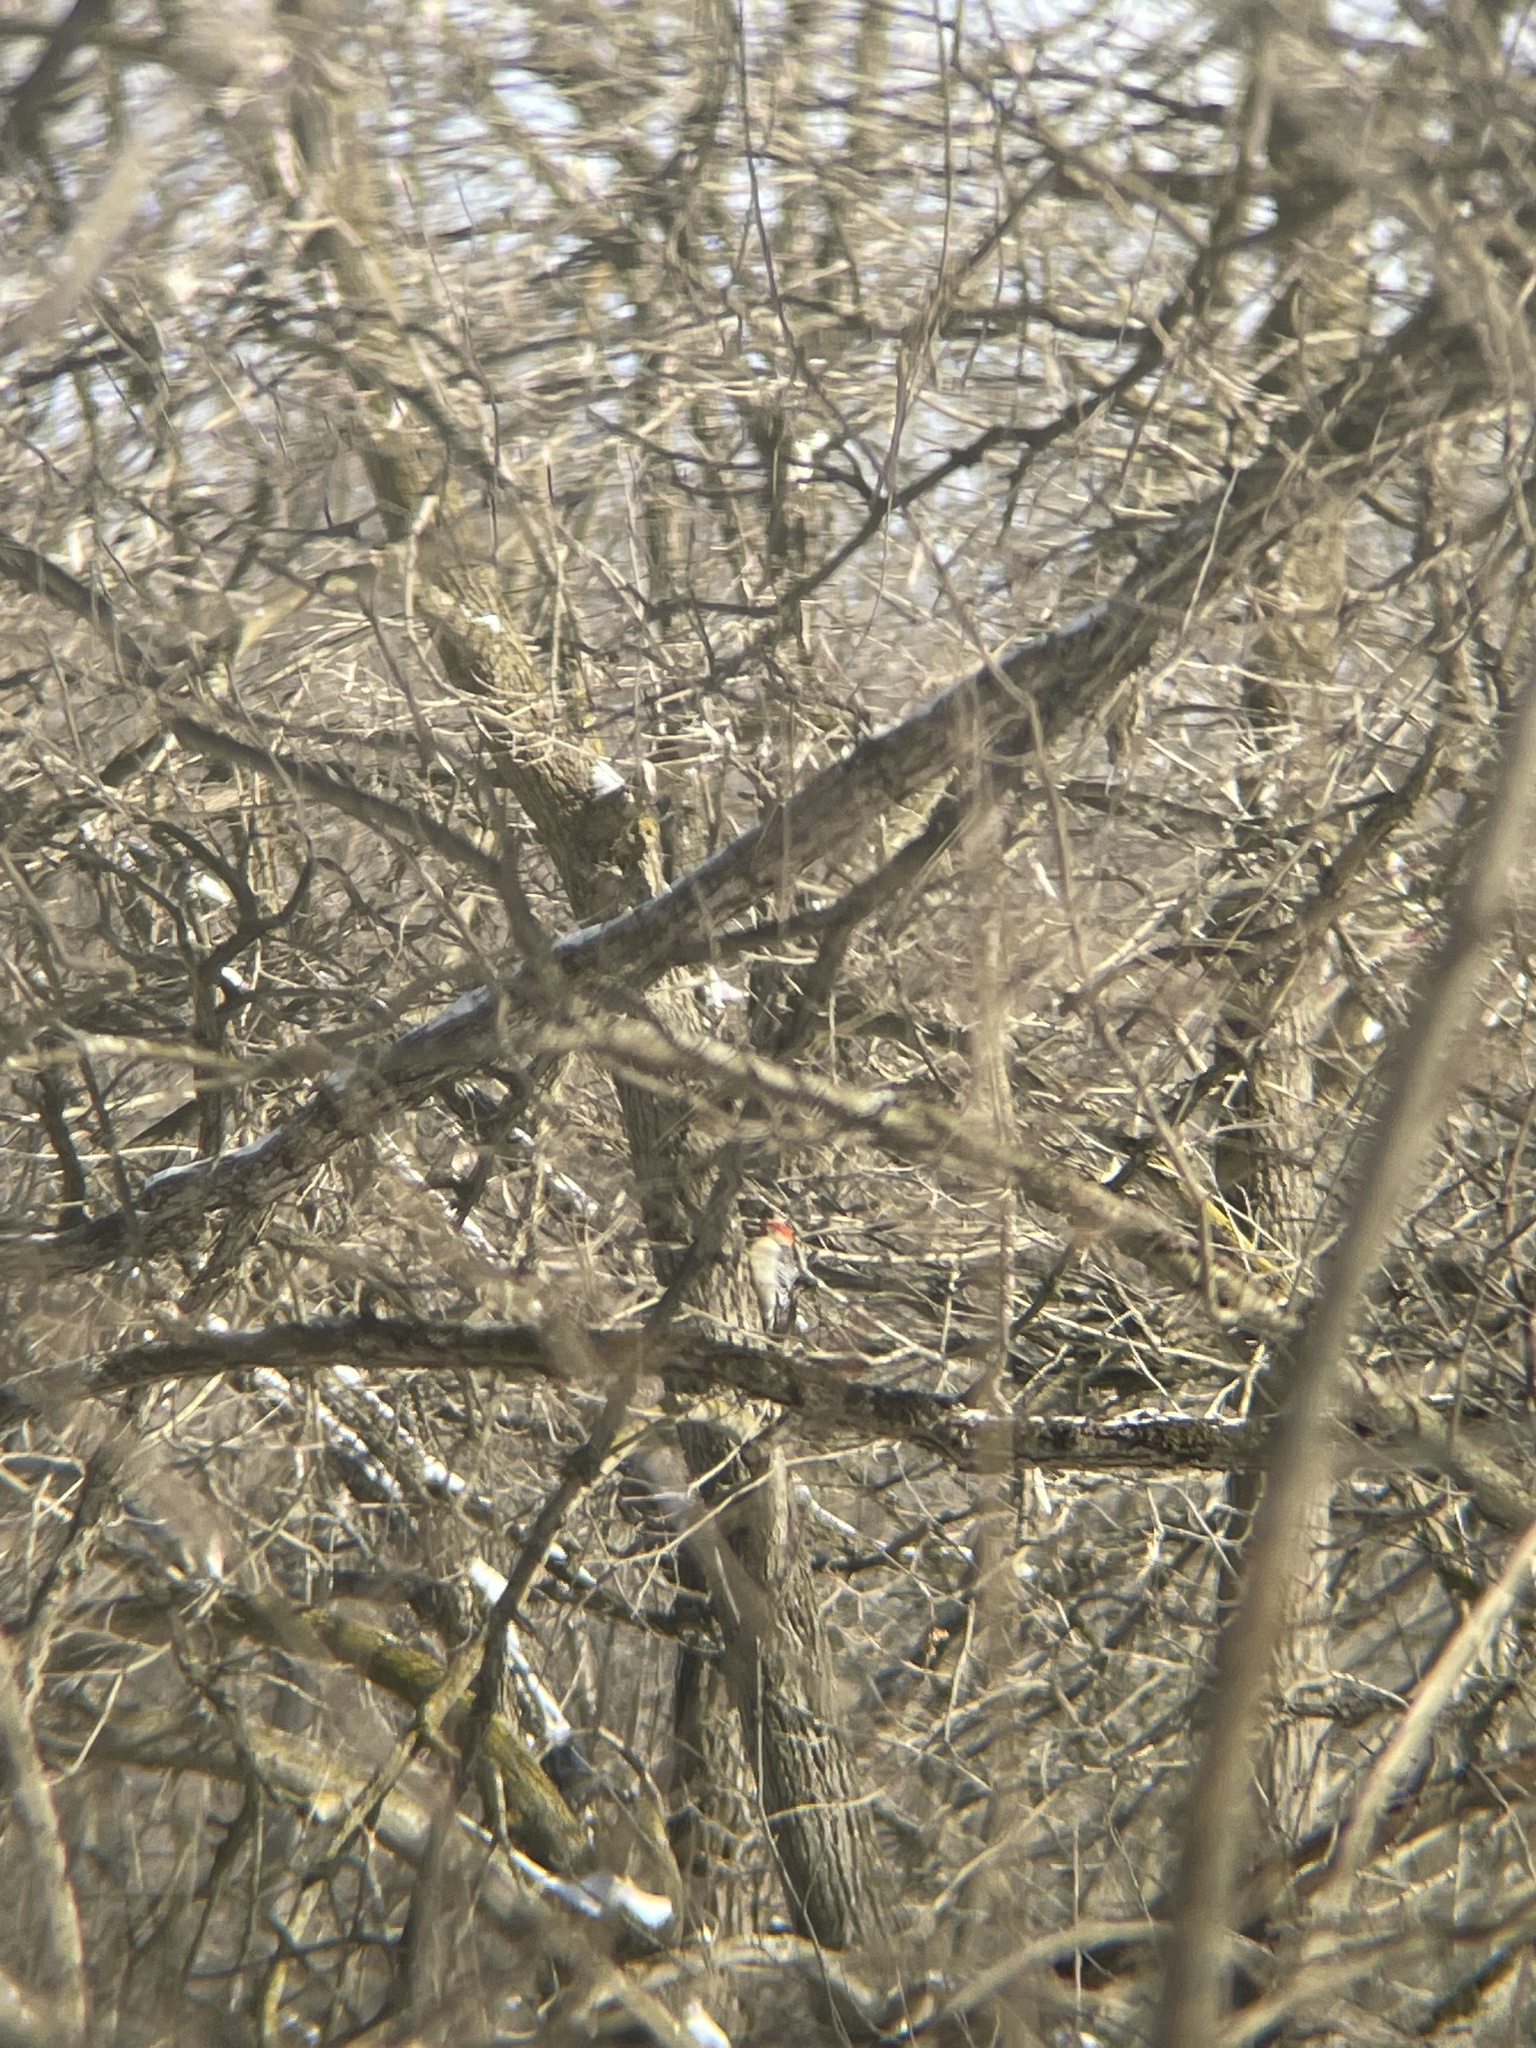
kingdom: Animalia
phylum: Chordata
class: Aves
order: Piciformes
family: Picidae
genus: Melanerpes
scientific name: Melanerpes carolinus
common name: Red-bellied woodpecker
